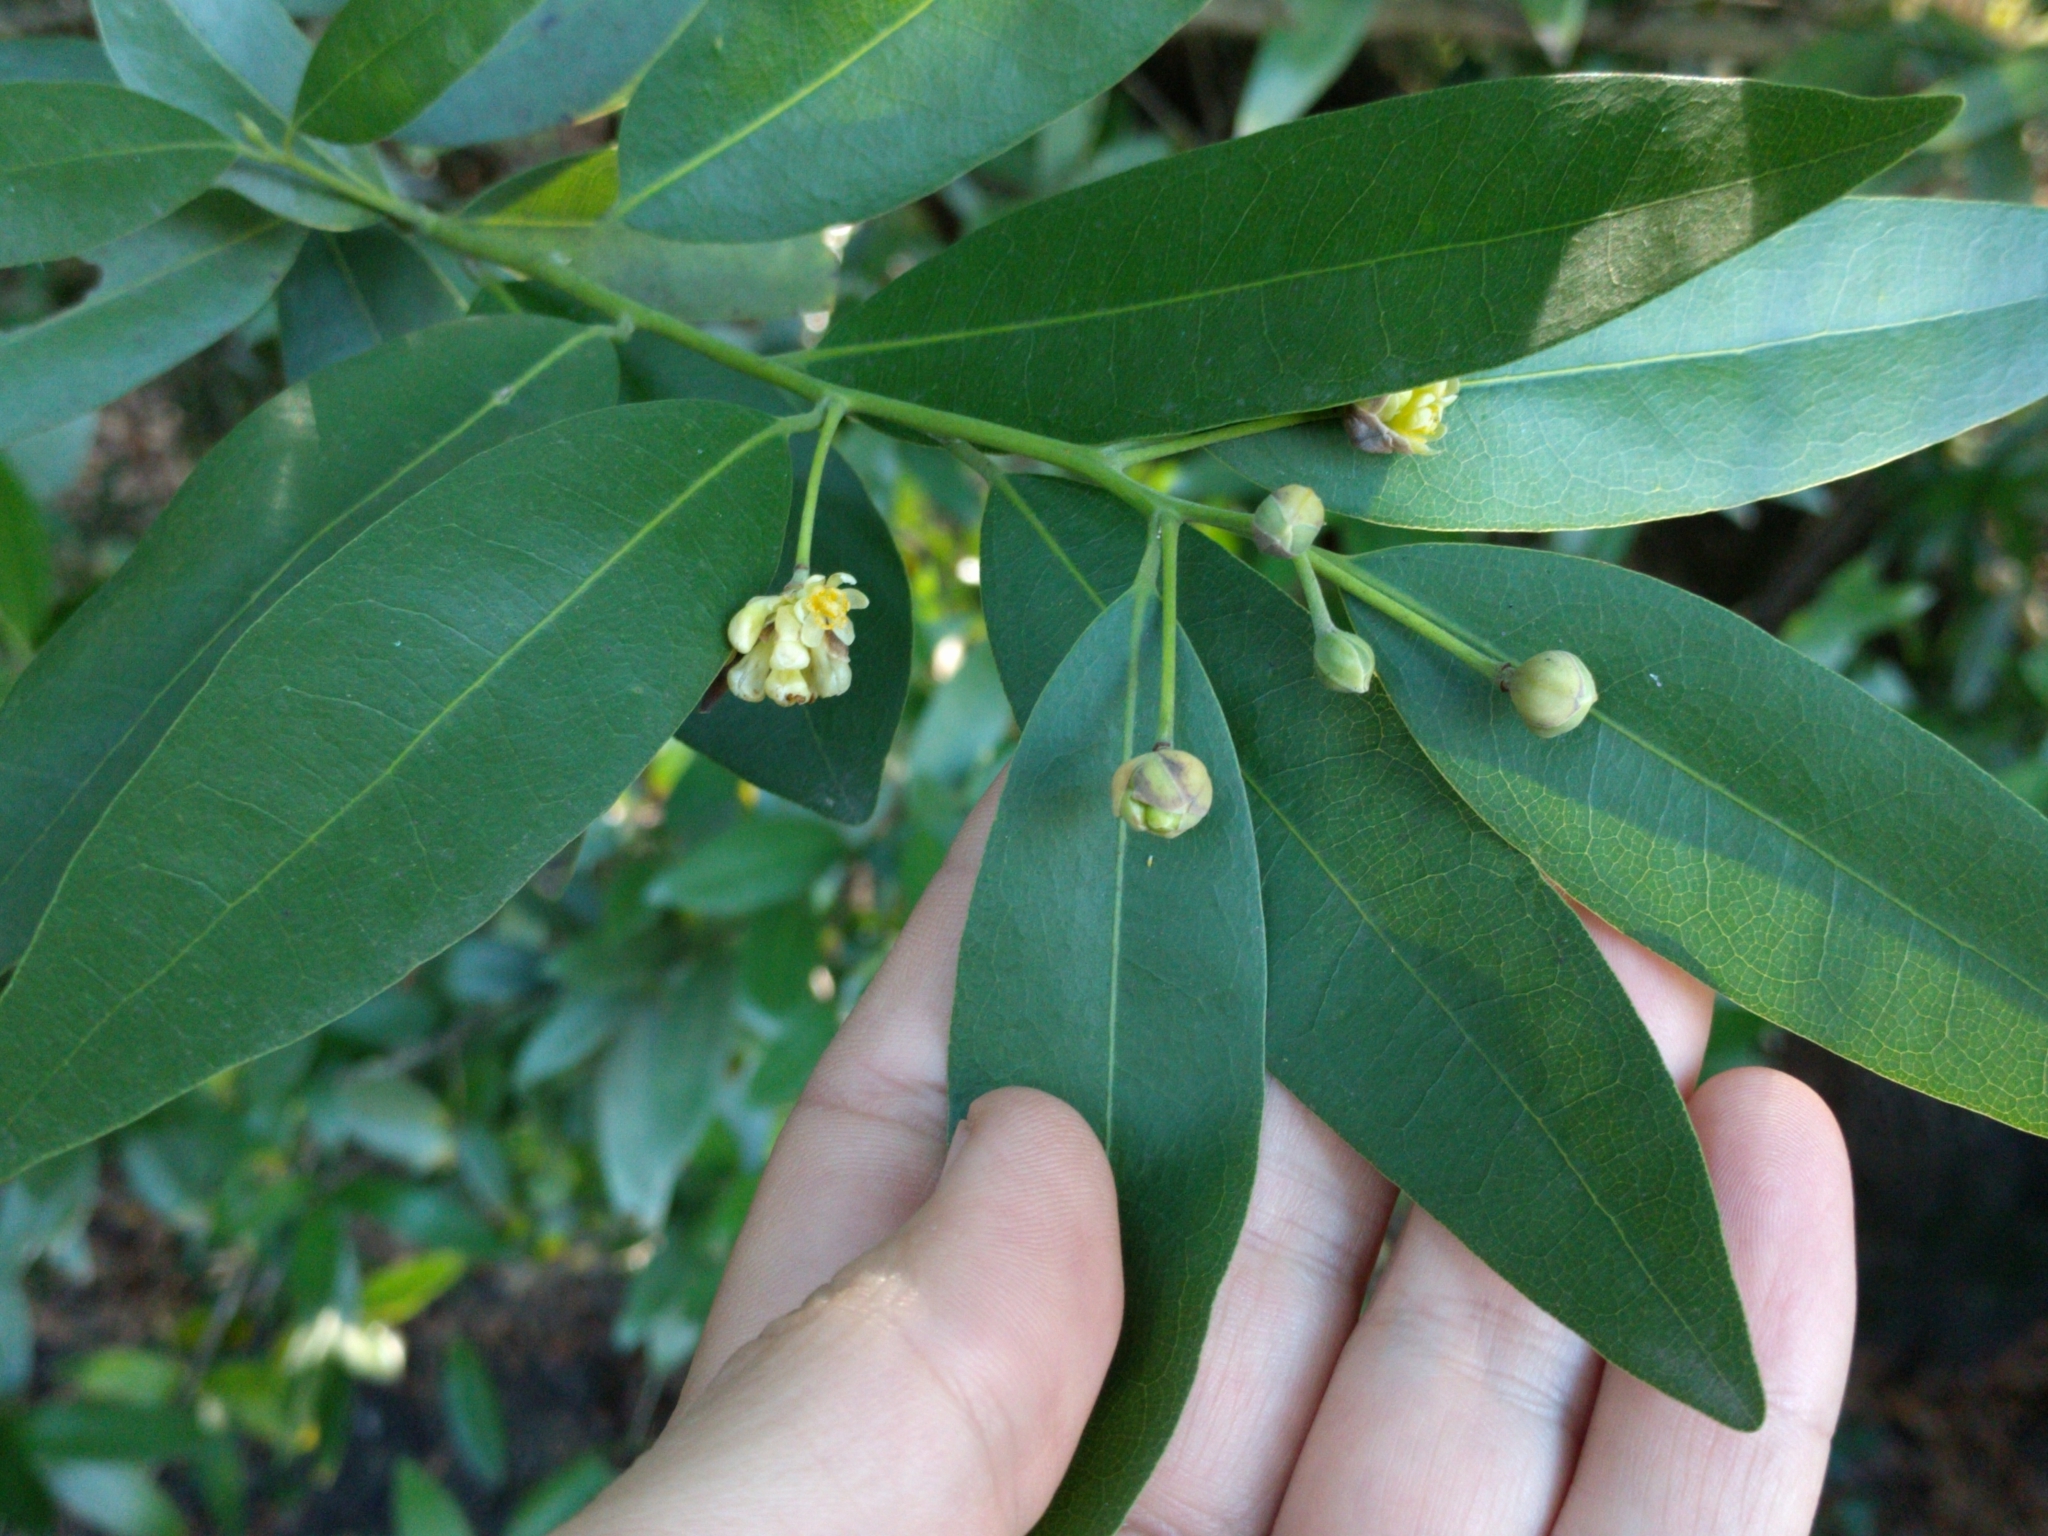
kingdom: Plantae
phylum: Tracheophyta
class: Magnoliopsida
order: Laurales
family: Lauraceae
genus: Umbellularia
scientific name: Umbellularia californica
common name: California bay
